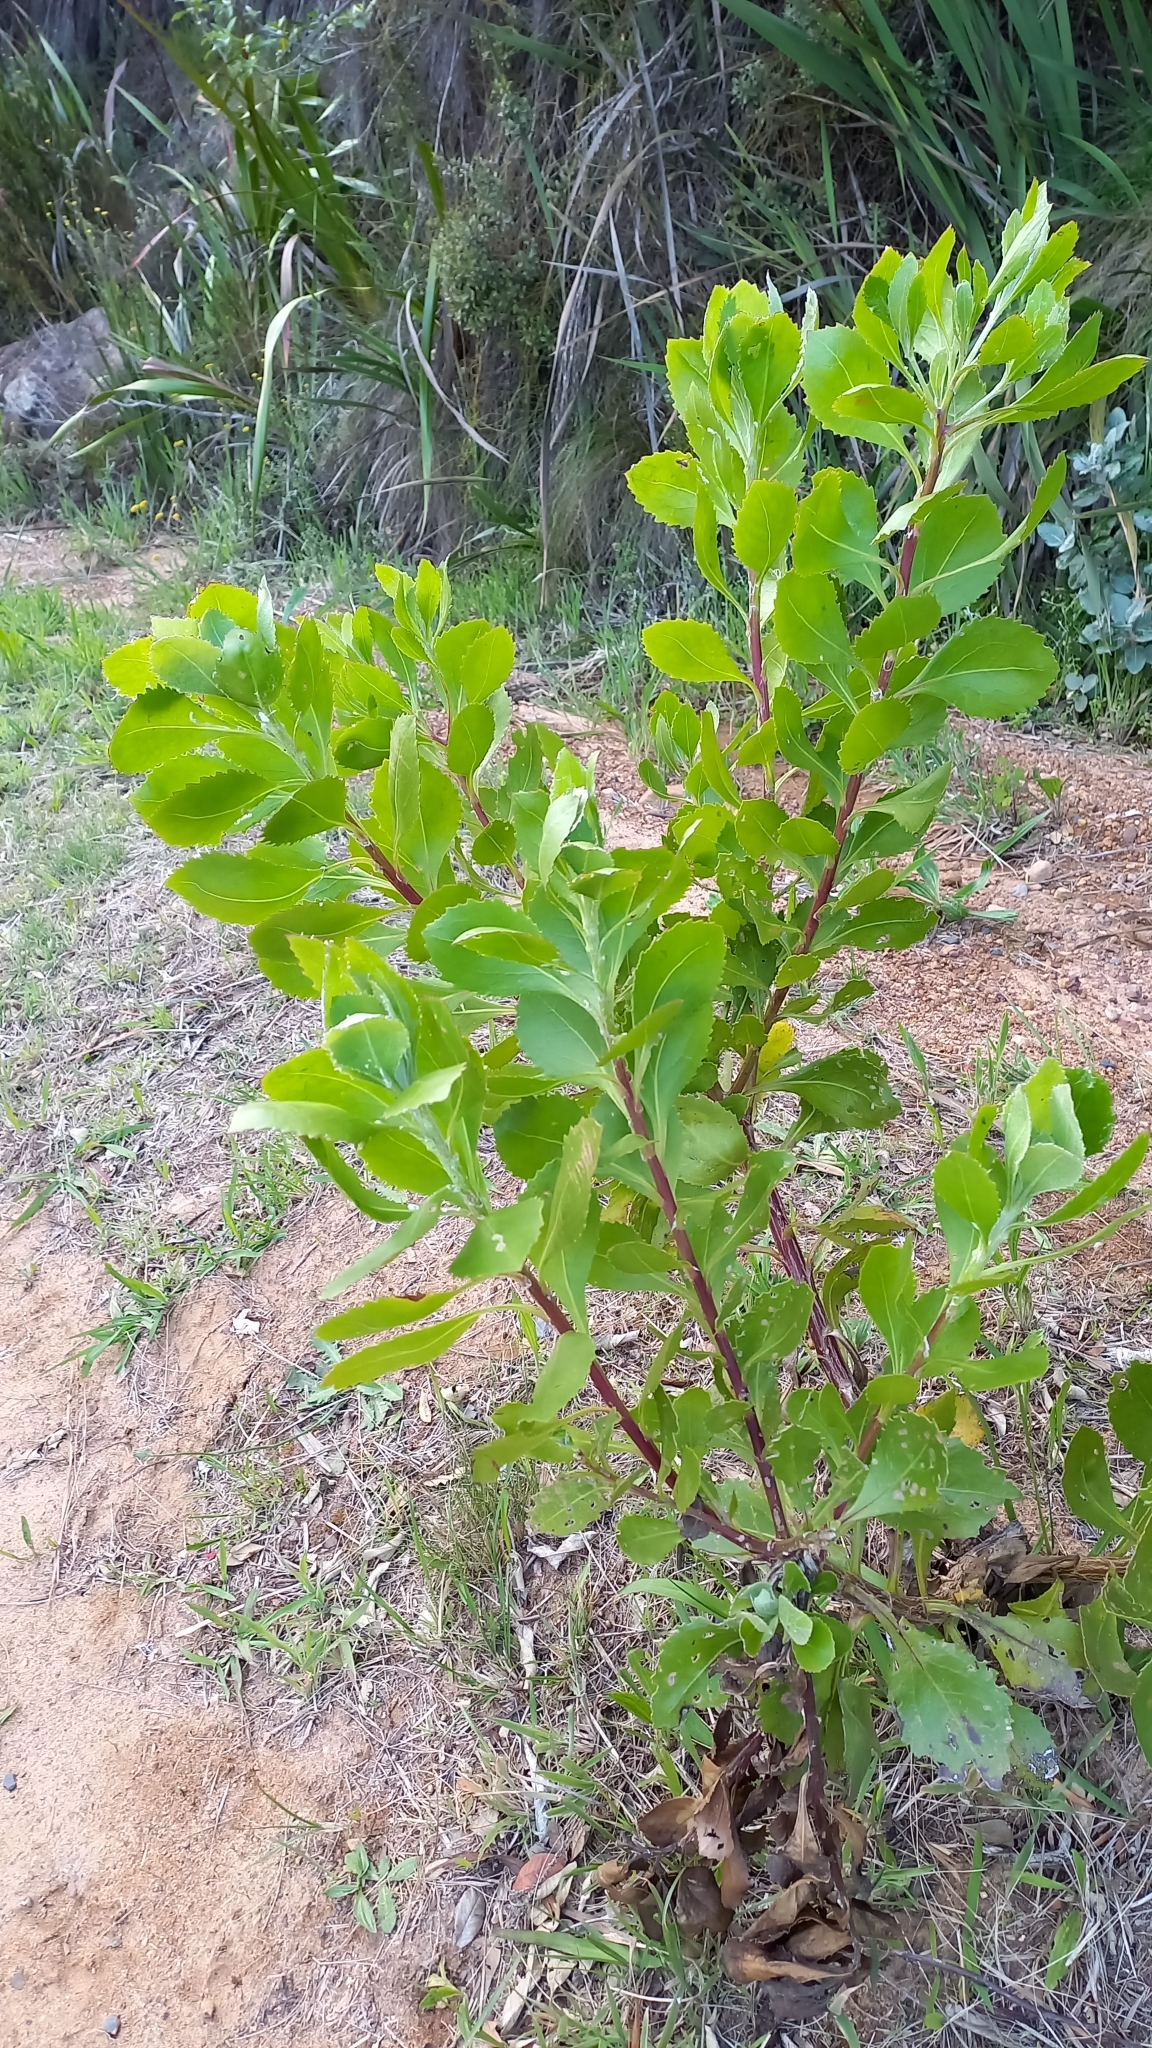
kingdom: Plantae
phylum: Tracheophyta
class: Magnoliopsida
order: Asterales
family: Asteraceae
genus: Osteospermum
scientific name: Osteospermum moniliferum
